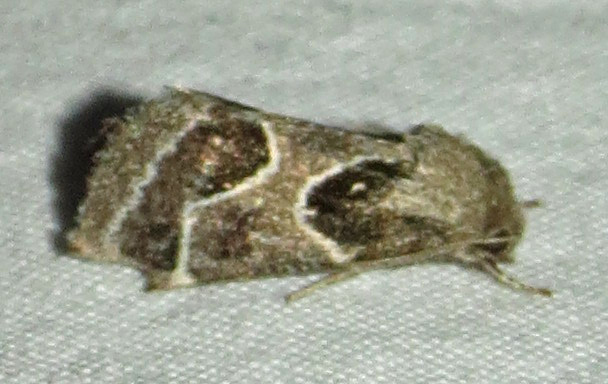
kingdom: Animalia
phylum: Arthropoda
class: Insecta
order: Lepidoptera
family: Noctuidae
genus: Schinia
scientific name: Schinia rivulosa
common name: Scarce meal-moth
